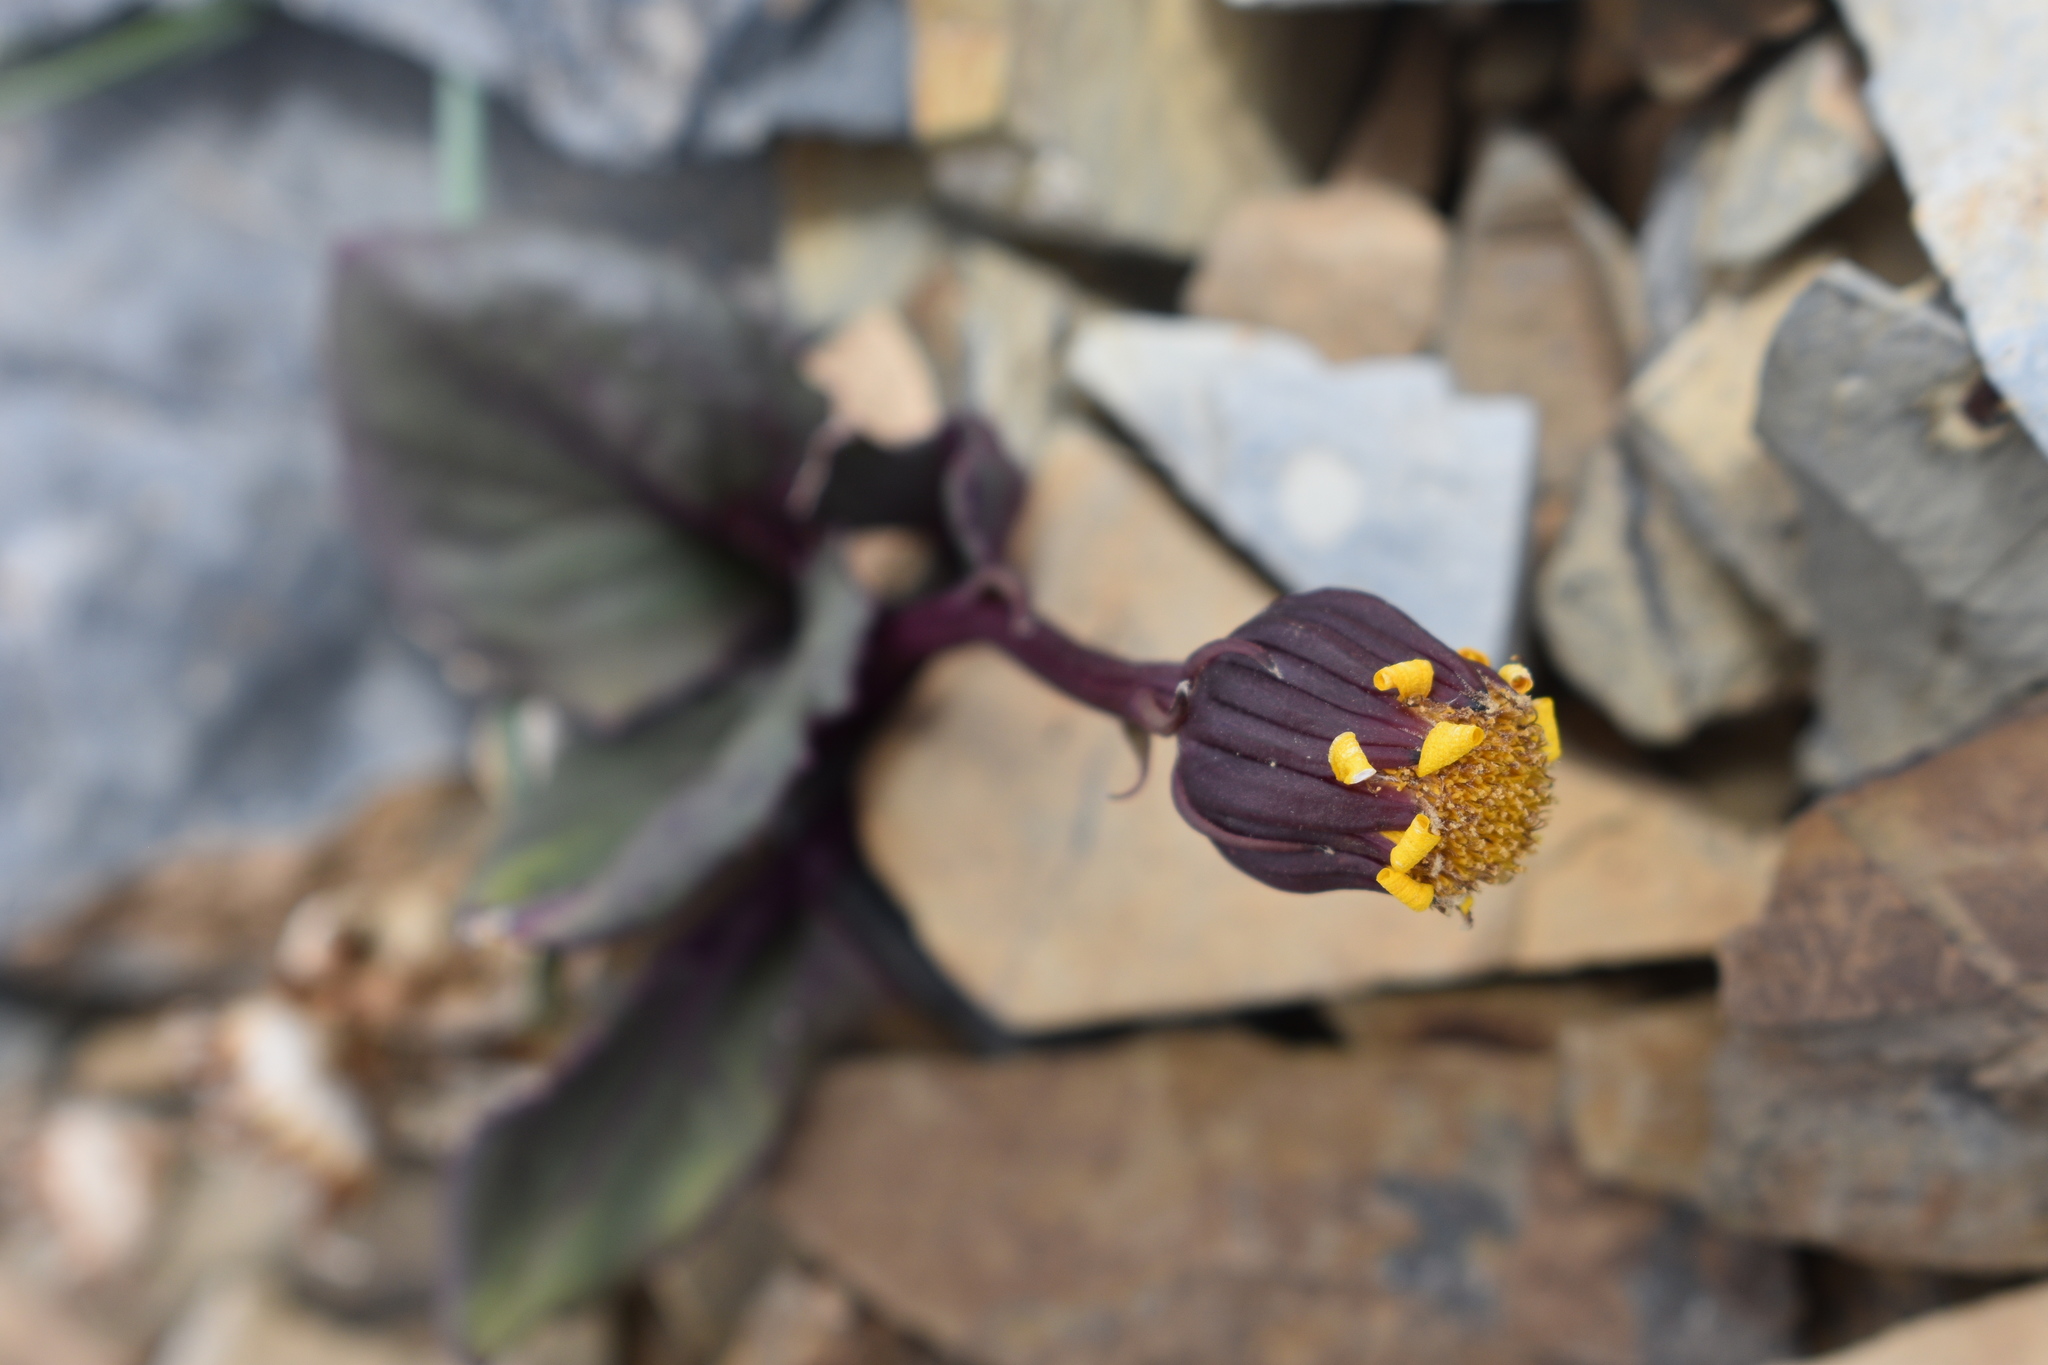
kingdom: Plantae
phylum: Tracheophyta
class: Magnoliopsida
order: Asterales
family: Asteraceae
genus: Senecio
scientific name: Senecio soldanella
